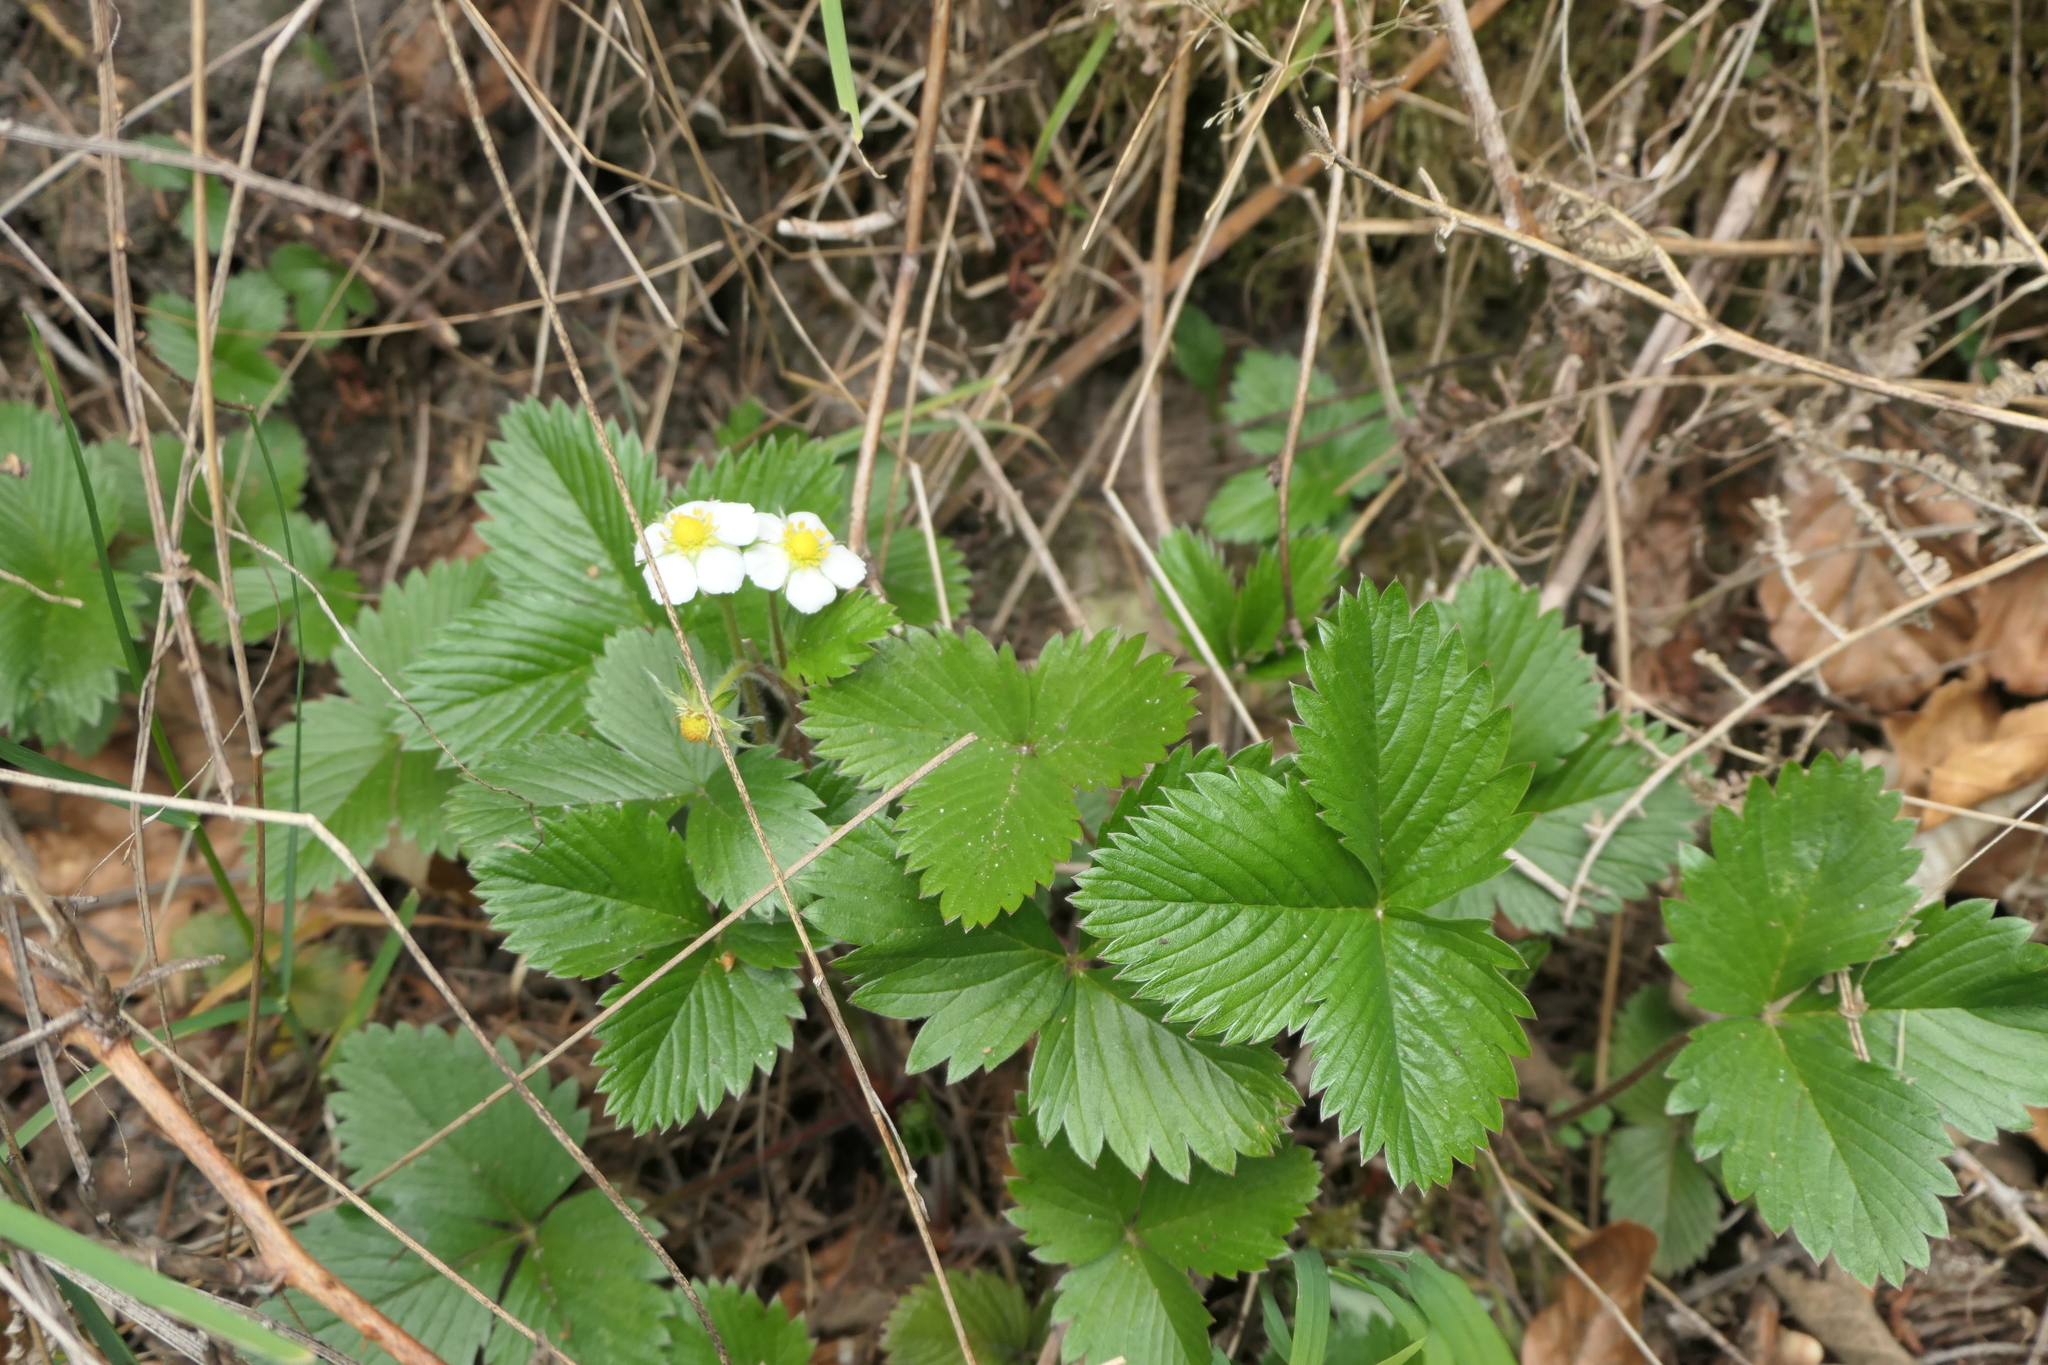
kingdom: Plantae
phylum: Tracheophyta
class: Magnoliopsida
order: Rosales
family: Rosaceae
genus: Fragaria
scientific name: Fragaria vesca
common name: Wild strawberry
